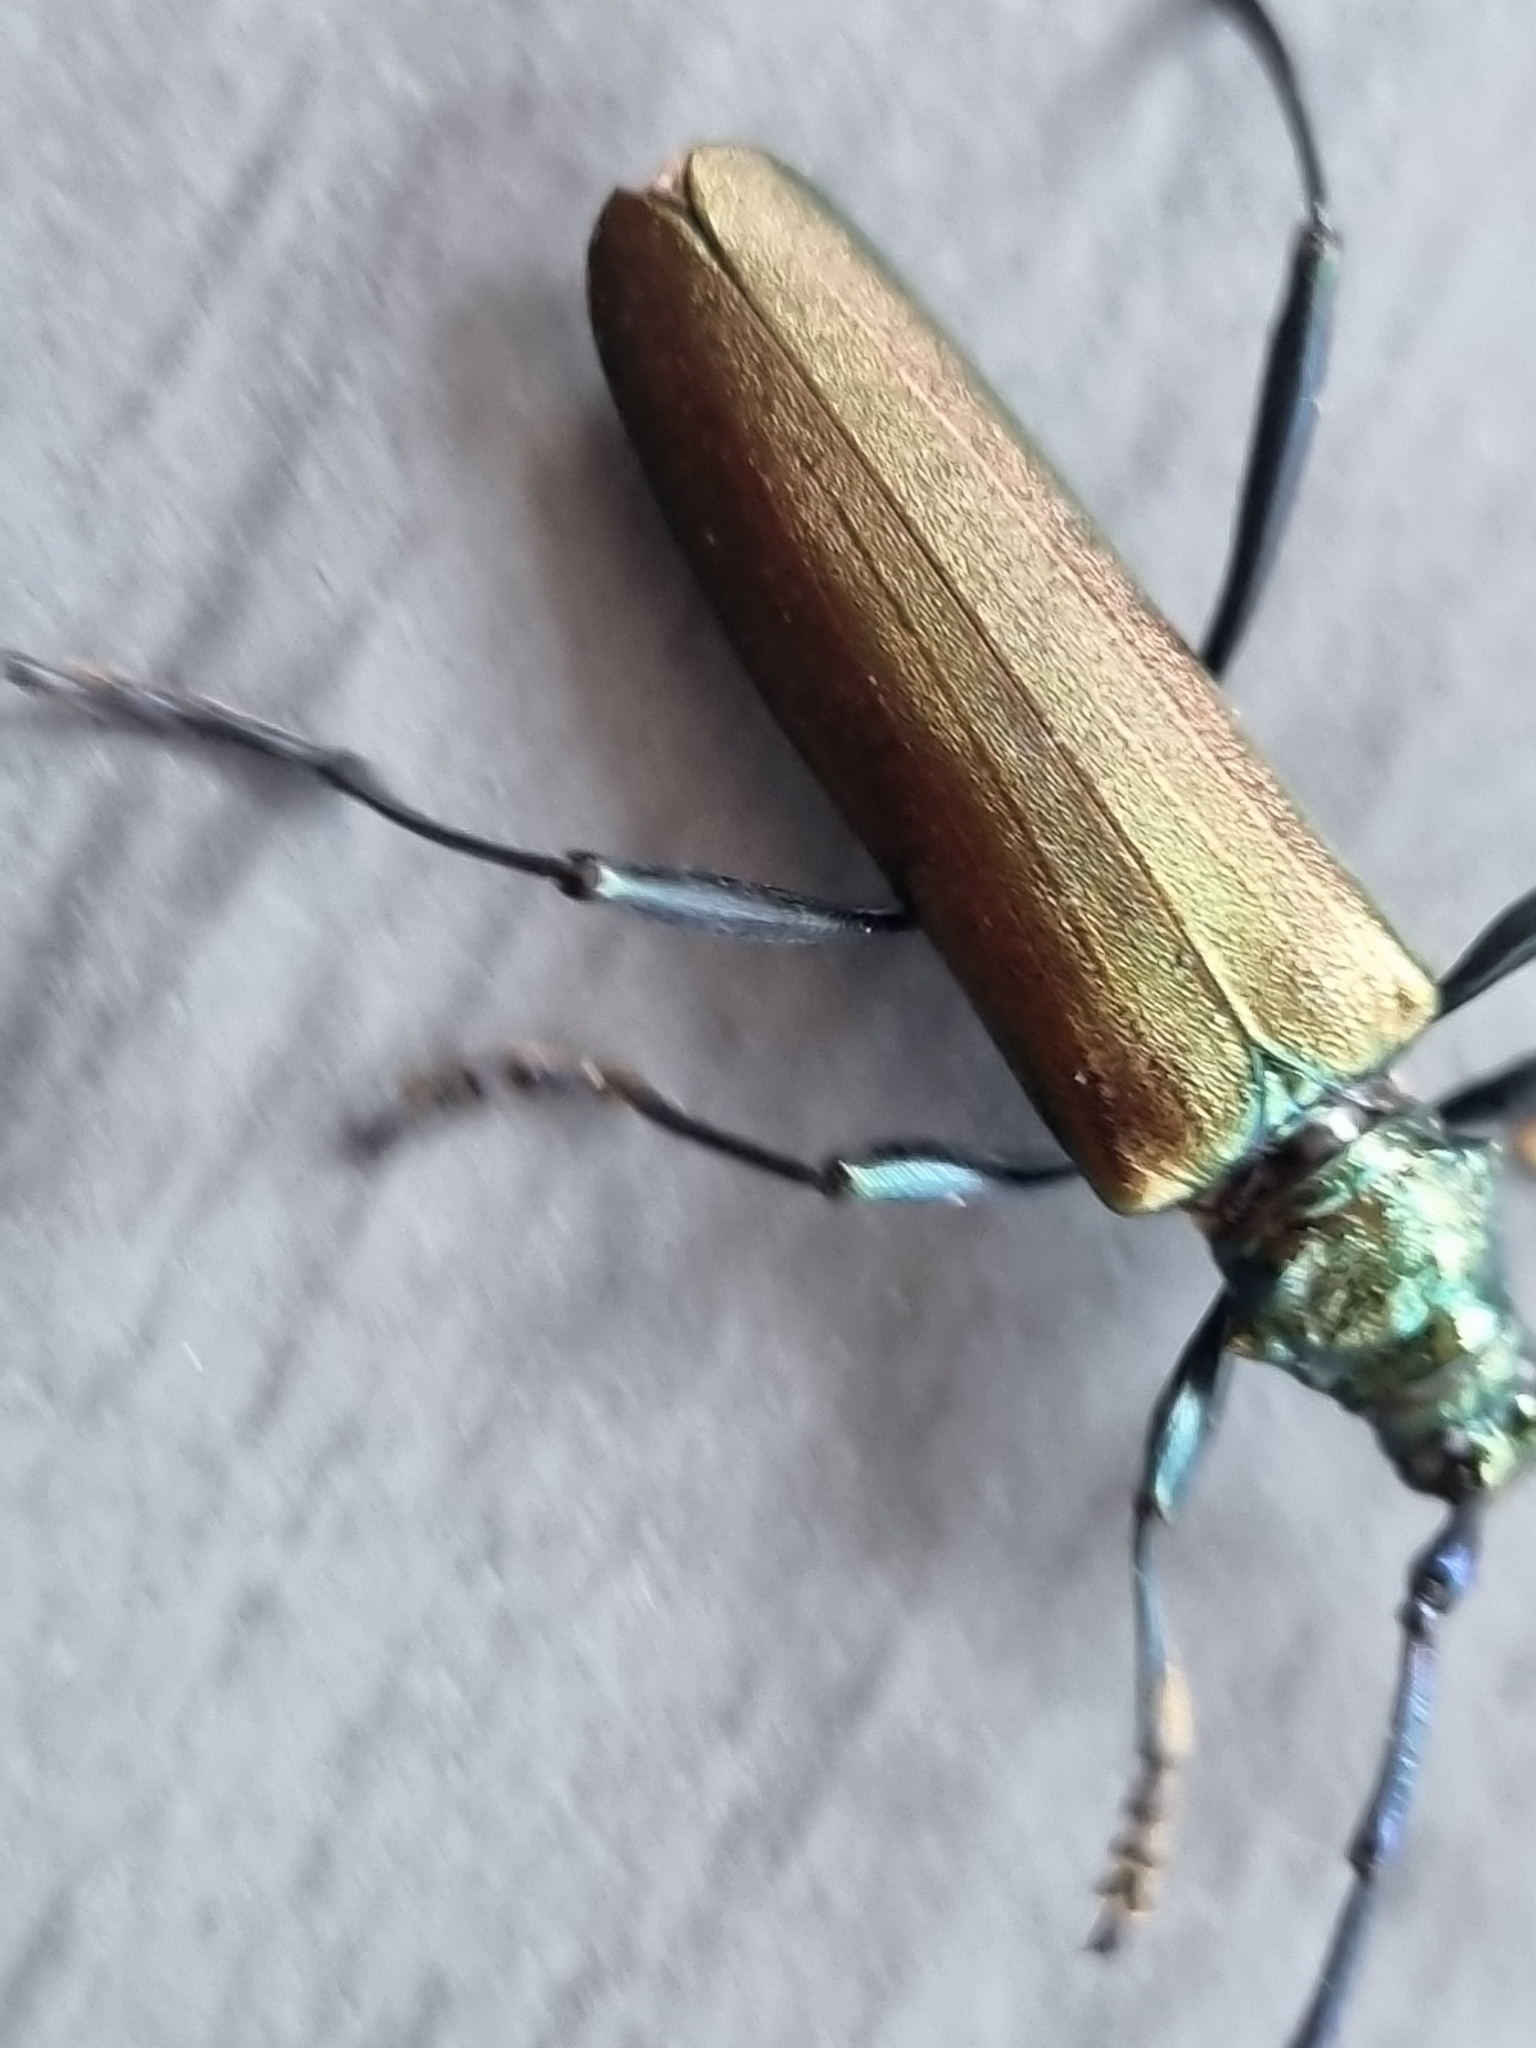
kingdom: Animalia
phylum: Arthropoda
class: Insecta
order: Coleoptera
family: Cerambycidae
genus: Aromia
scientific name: Aromia moschata
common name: Musk beetle
